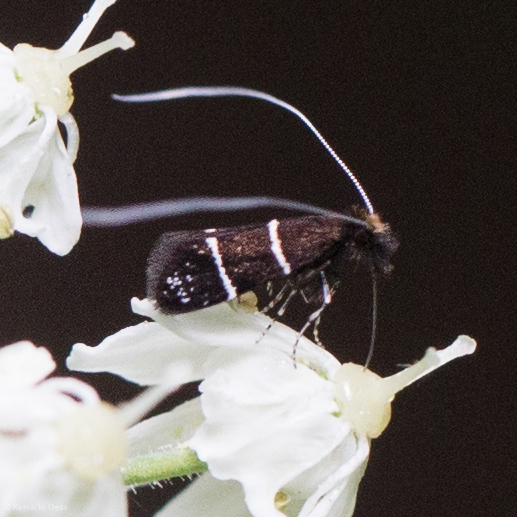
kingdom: Animalia
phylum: Arthropoda
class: Insecta
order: Lepidoptera
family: Adelidae
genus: Adela
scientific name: Adela septentrionella
